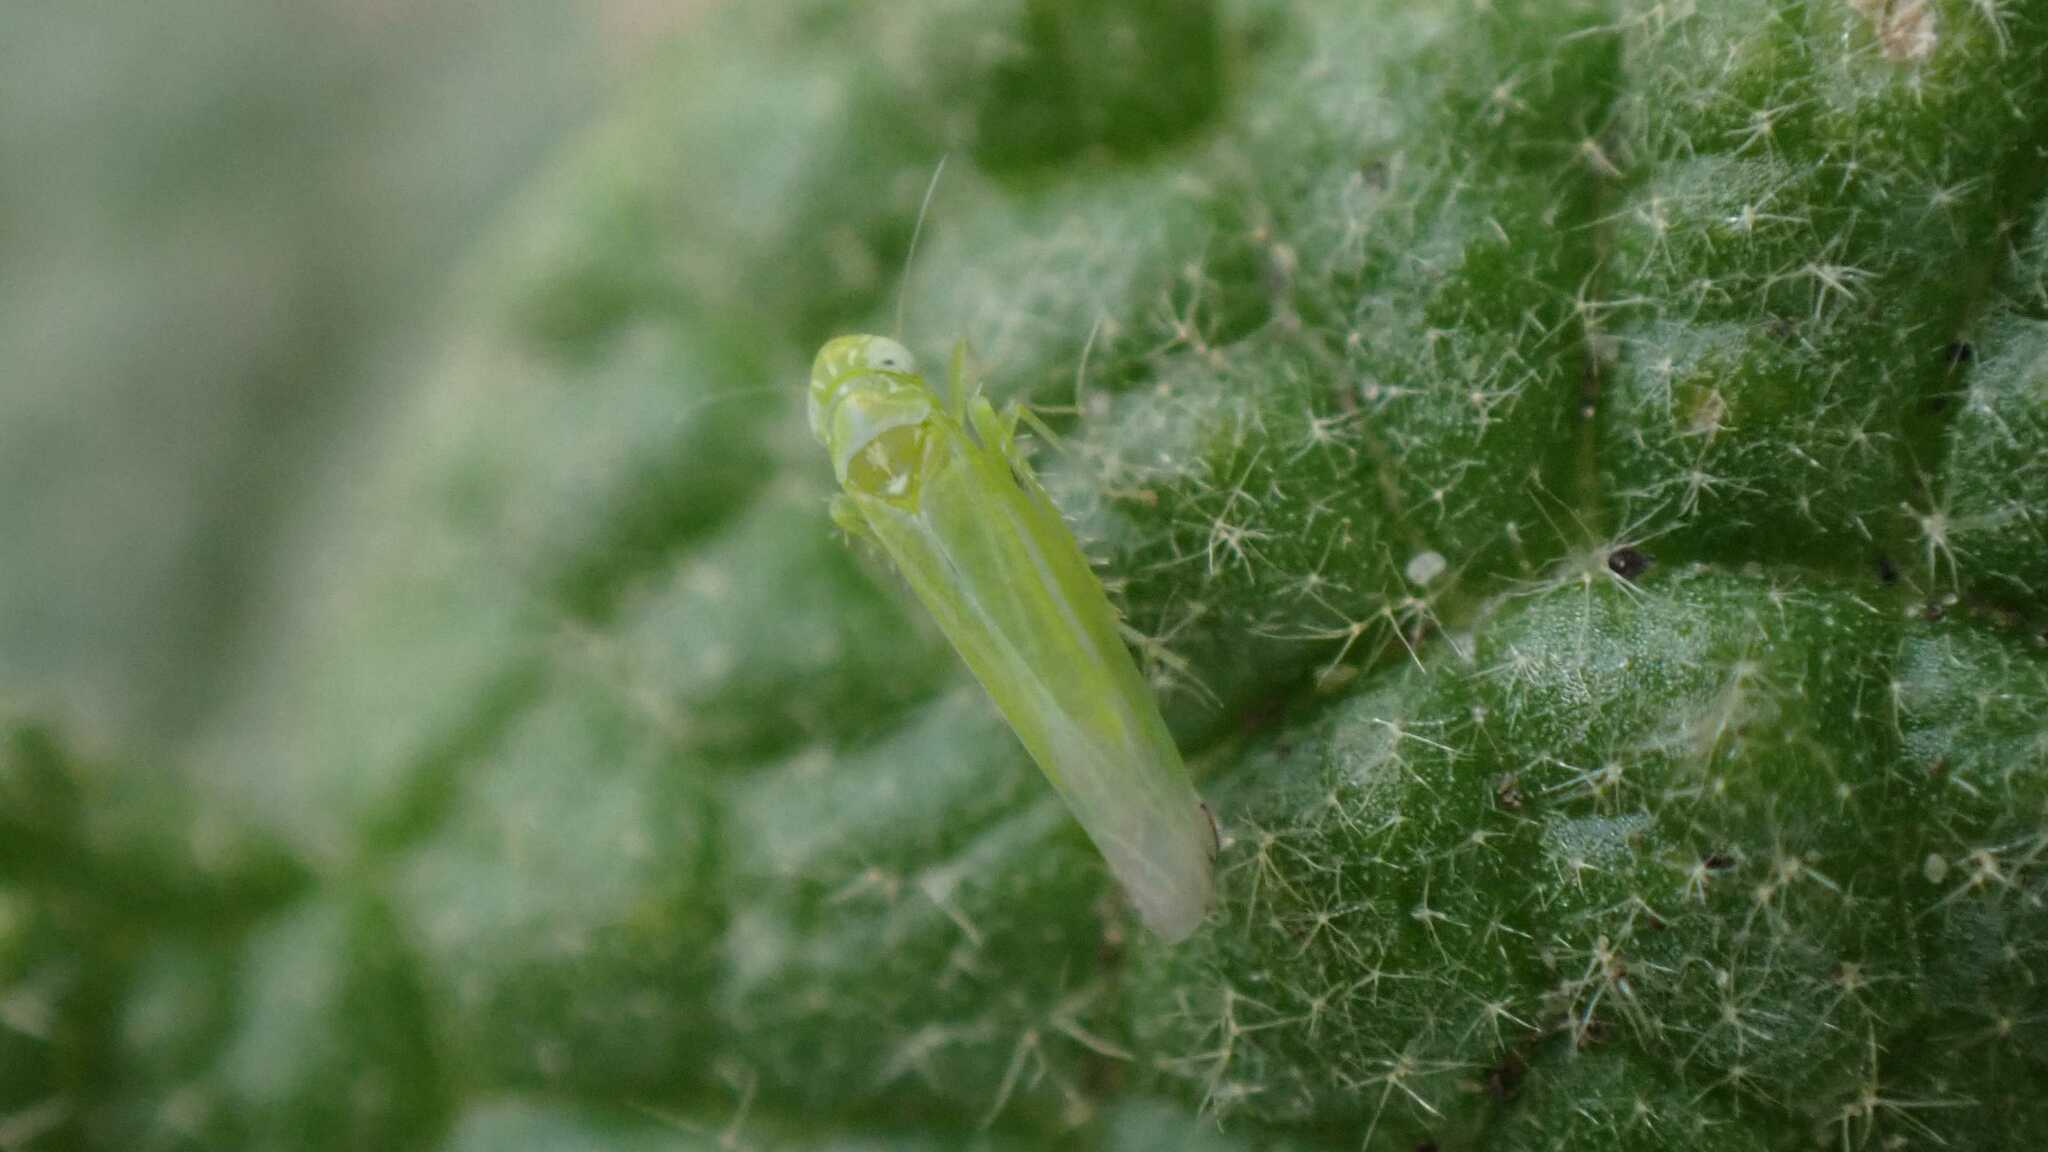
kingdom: Animalia
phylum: Arthropoda
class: Insecta
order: Hemiptera
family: Cicadellidae
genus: Hebata
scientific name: Hebata vitis
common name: The smaller green leafhopper
